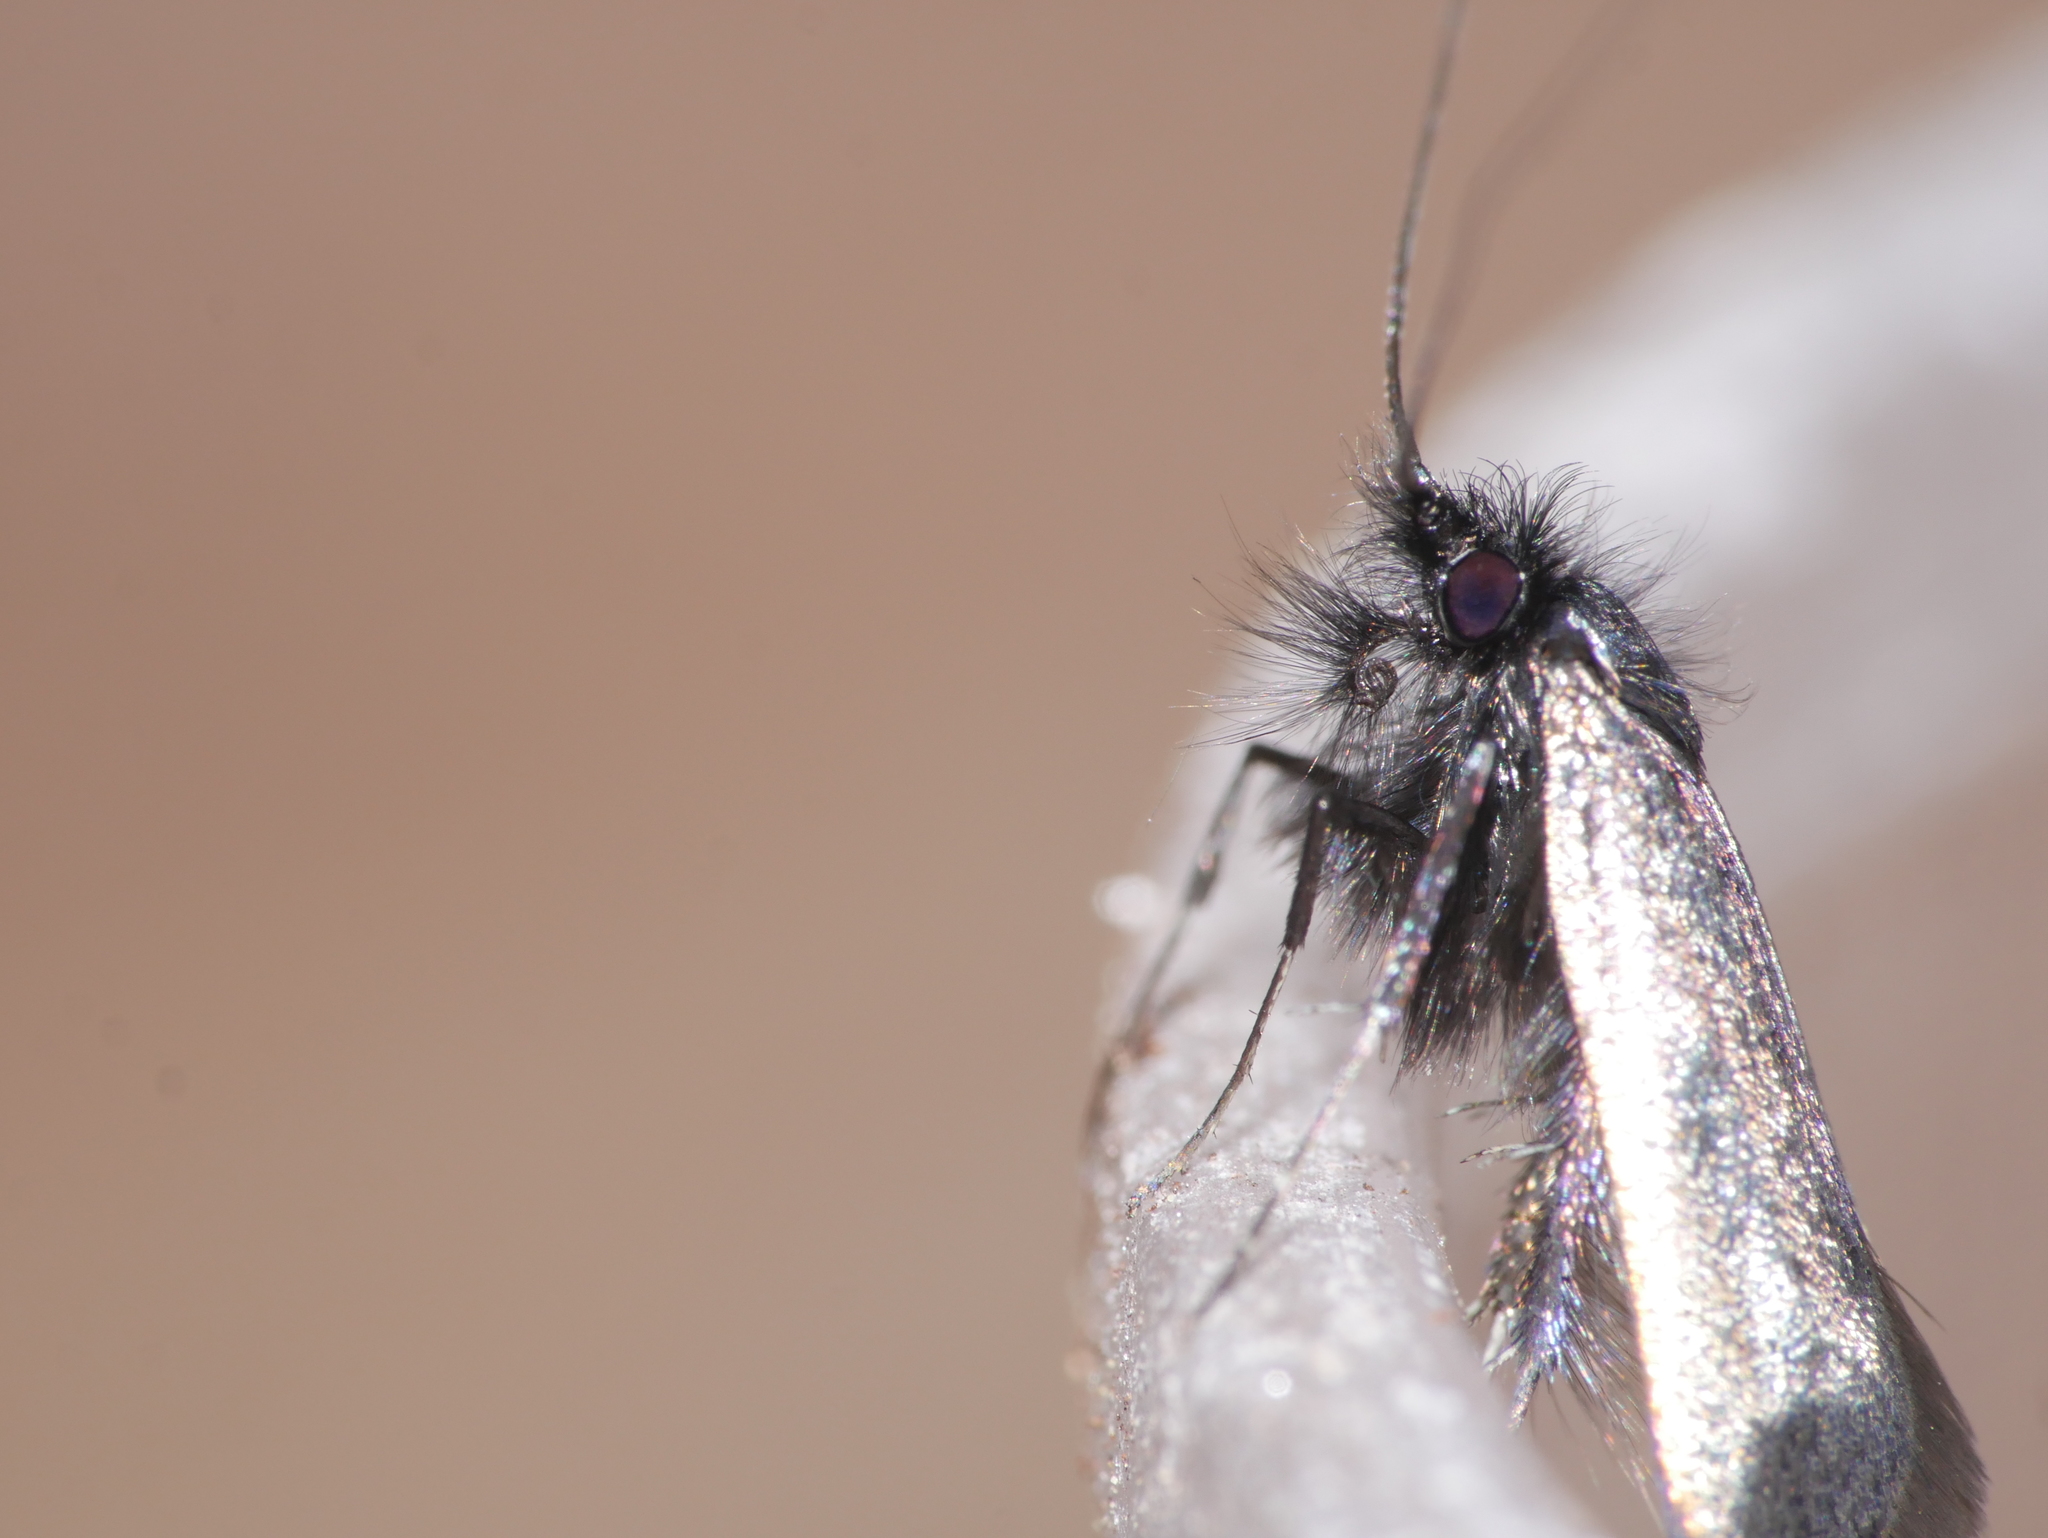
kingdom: Animalia
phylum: Arthropoda
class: Insecta
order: Lepidoptera
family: Adelidae
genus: Adela
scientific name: Adela viridella
